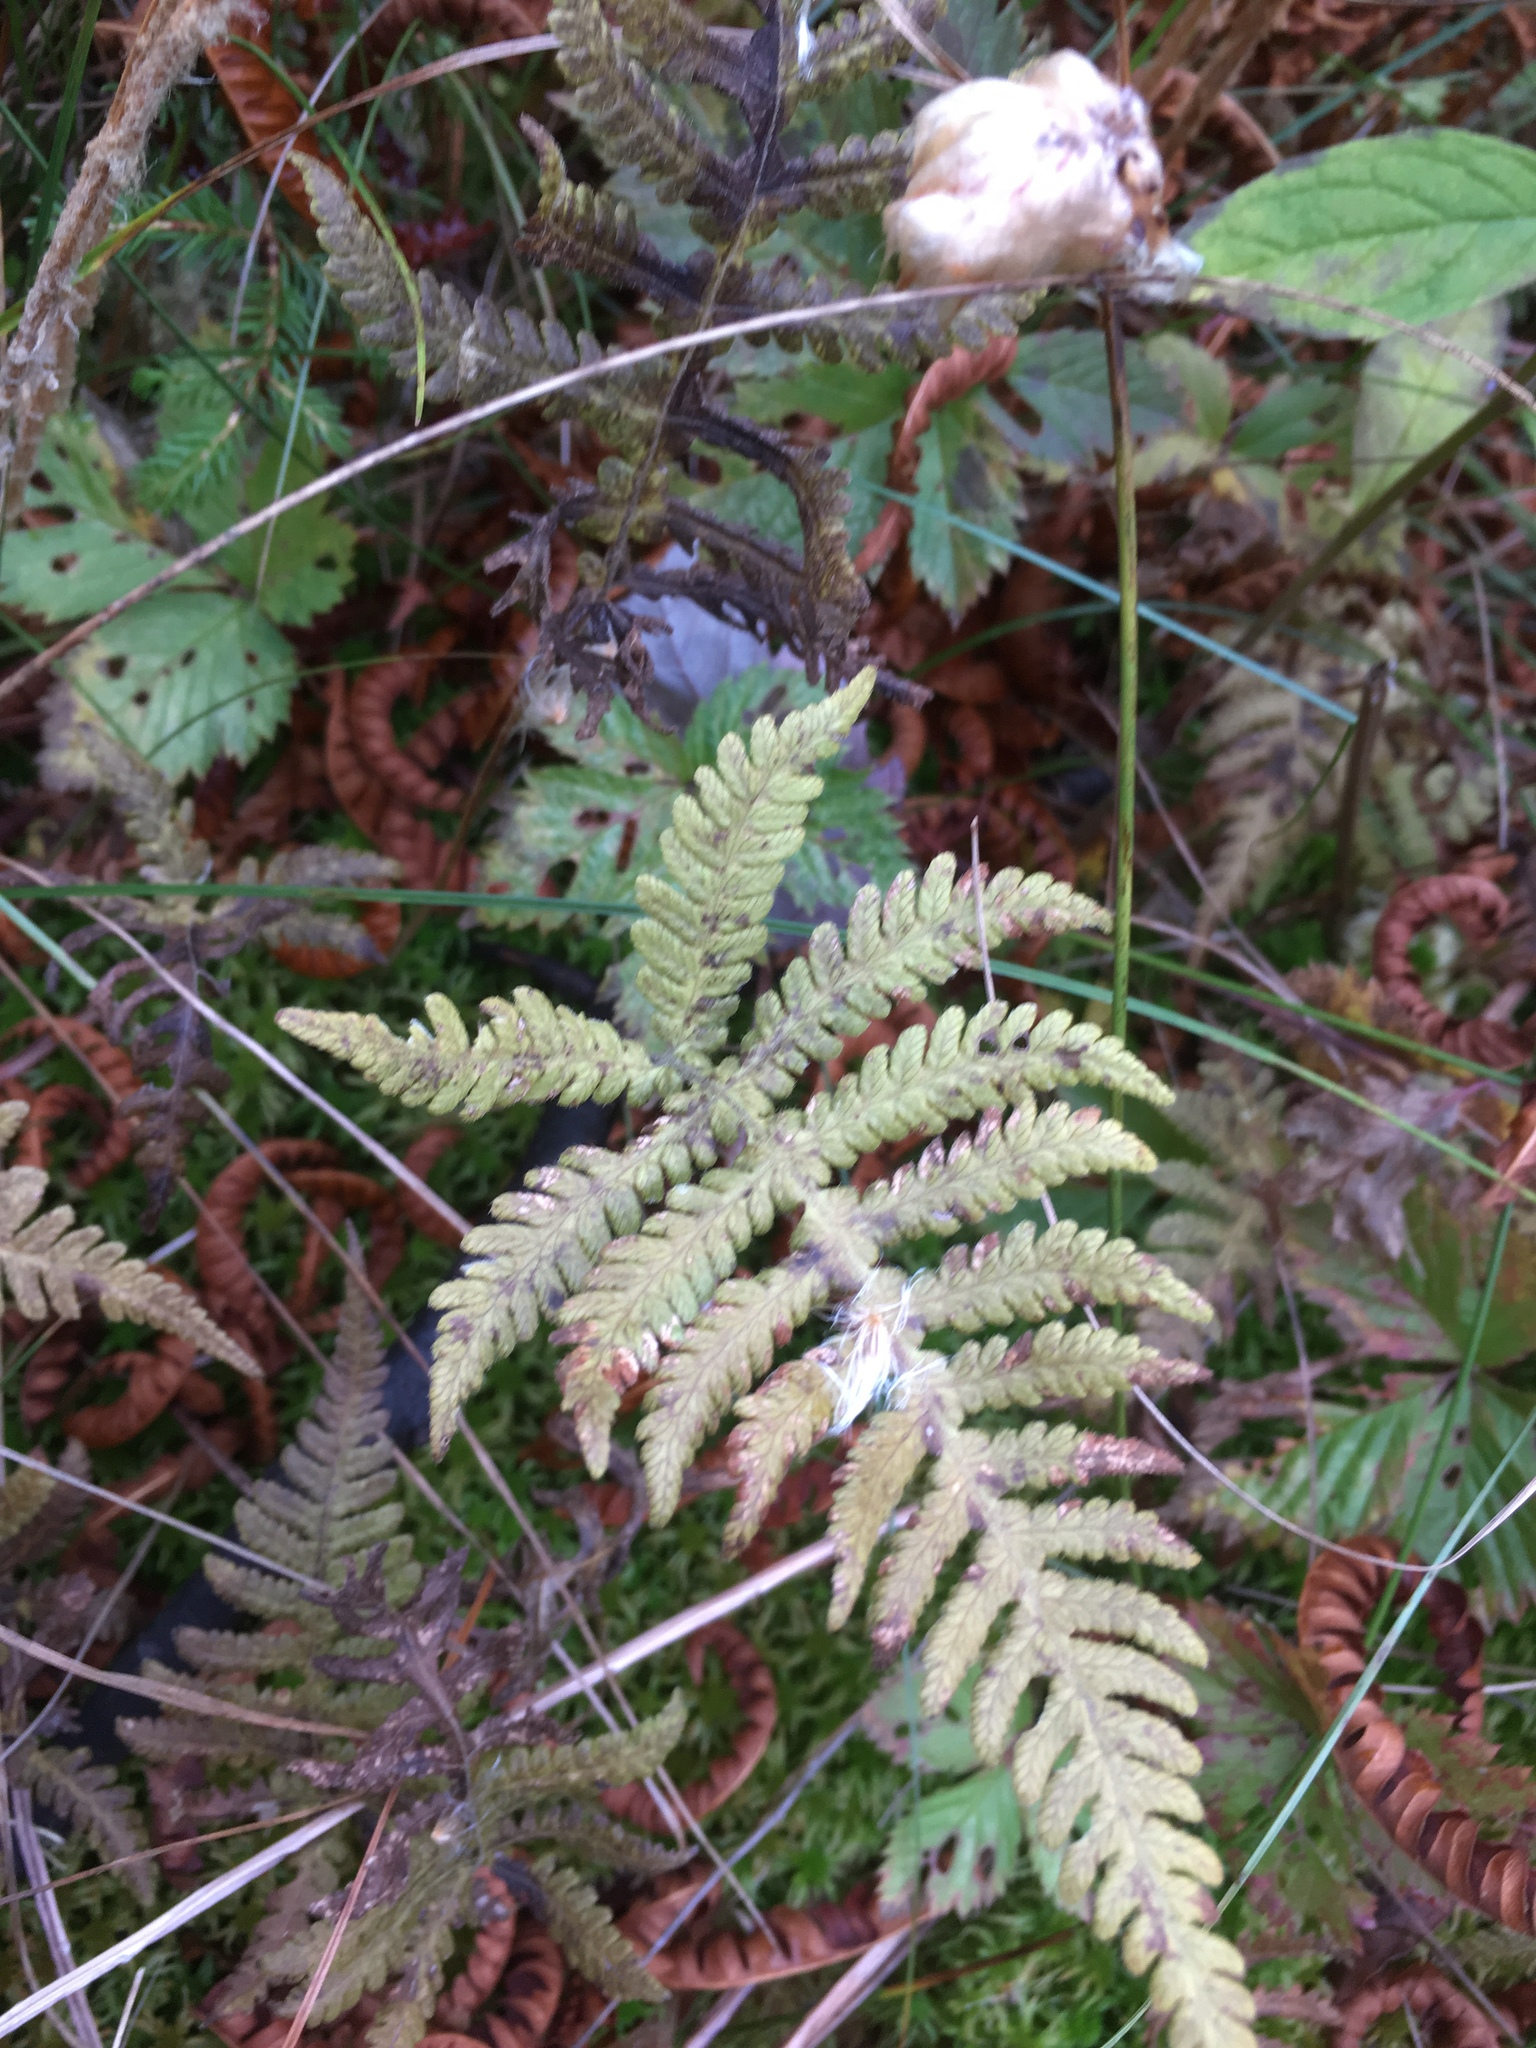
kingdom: Plantae
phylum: Tracheophyta
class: Polypodiopsida
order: Polypodiales
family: Thelypteridaceae
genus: Phegopteris
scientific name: Phegopteris connectilis
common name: Beech fern
